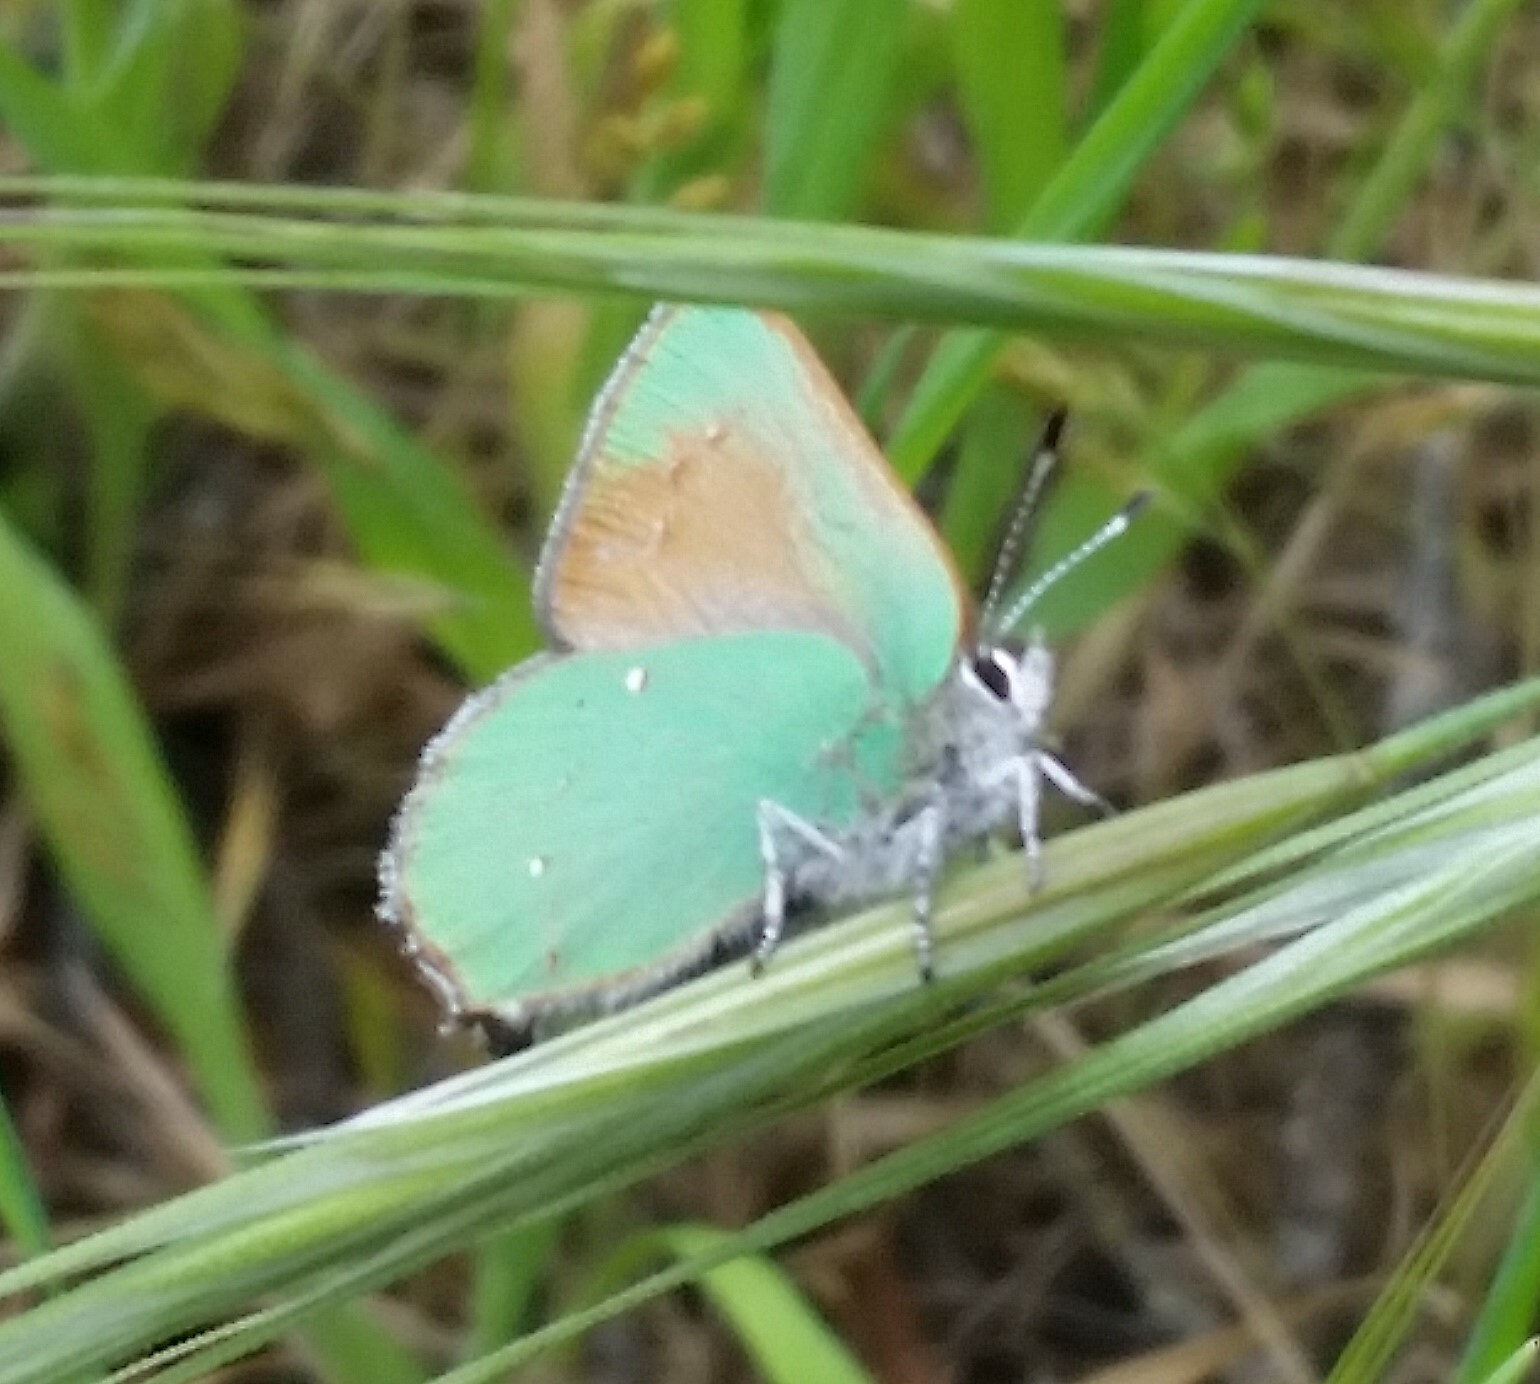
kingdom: Animalia
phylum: Arthropoda
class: Insecta
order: Lepidoptera
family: Lycaenidae
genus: Callophrys
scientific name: Callophrys dumetorum
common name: Bramble hairstreak
